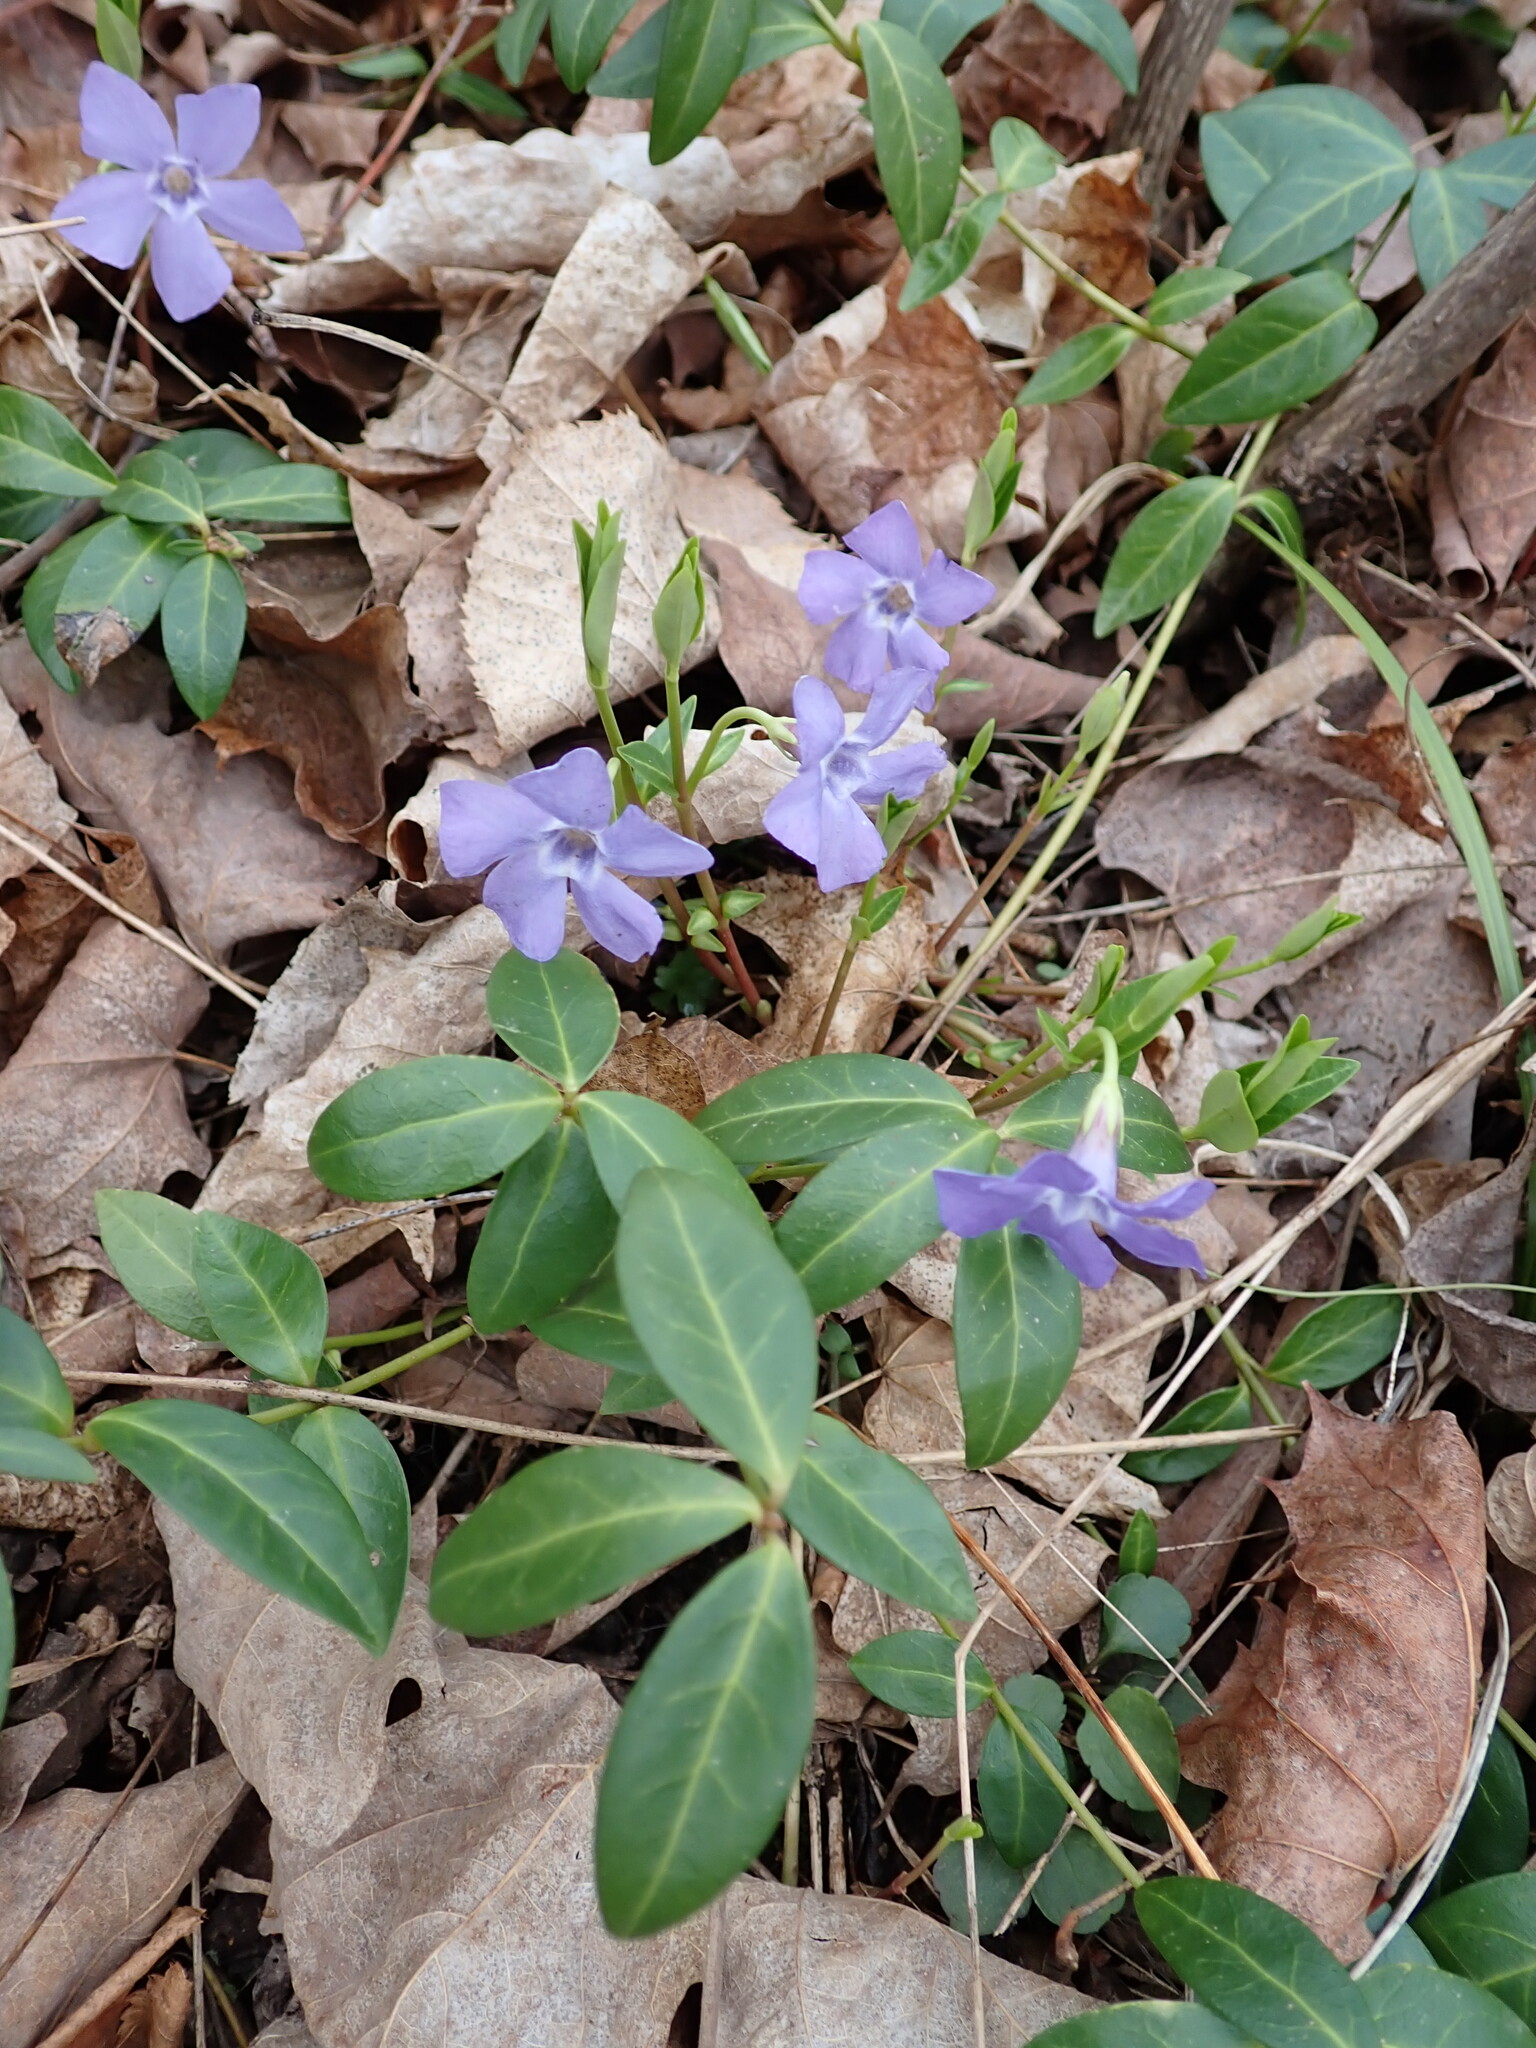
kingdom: Plantae
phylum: Tracheophyta
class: Magnoliopsida
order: Gentianales
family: Apocynaceae
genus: Vinca
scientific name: Vinca minor
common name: Lesser periwinkle
